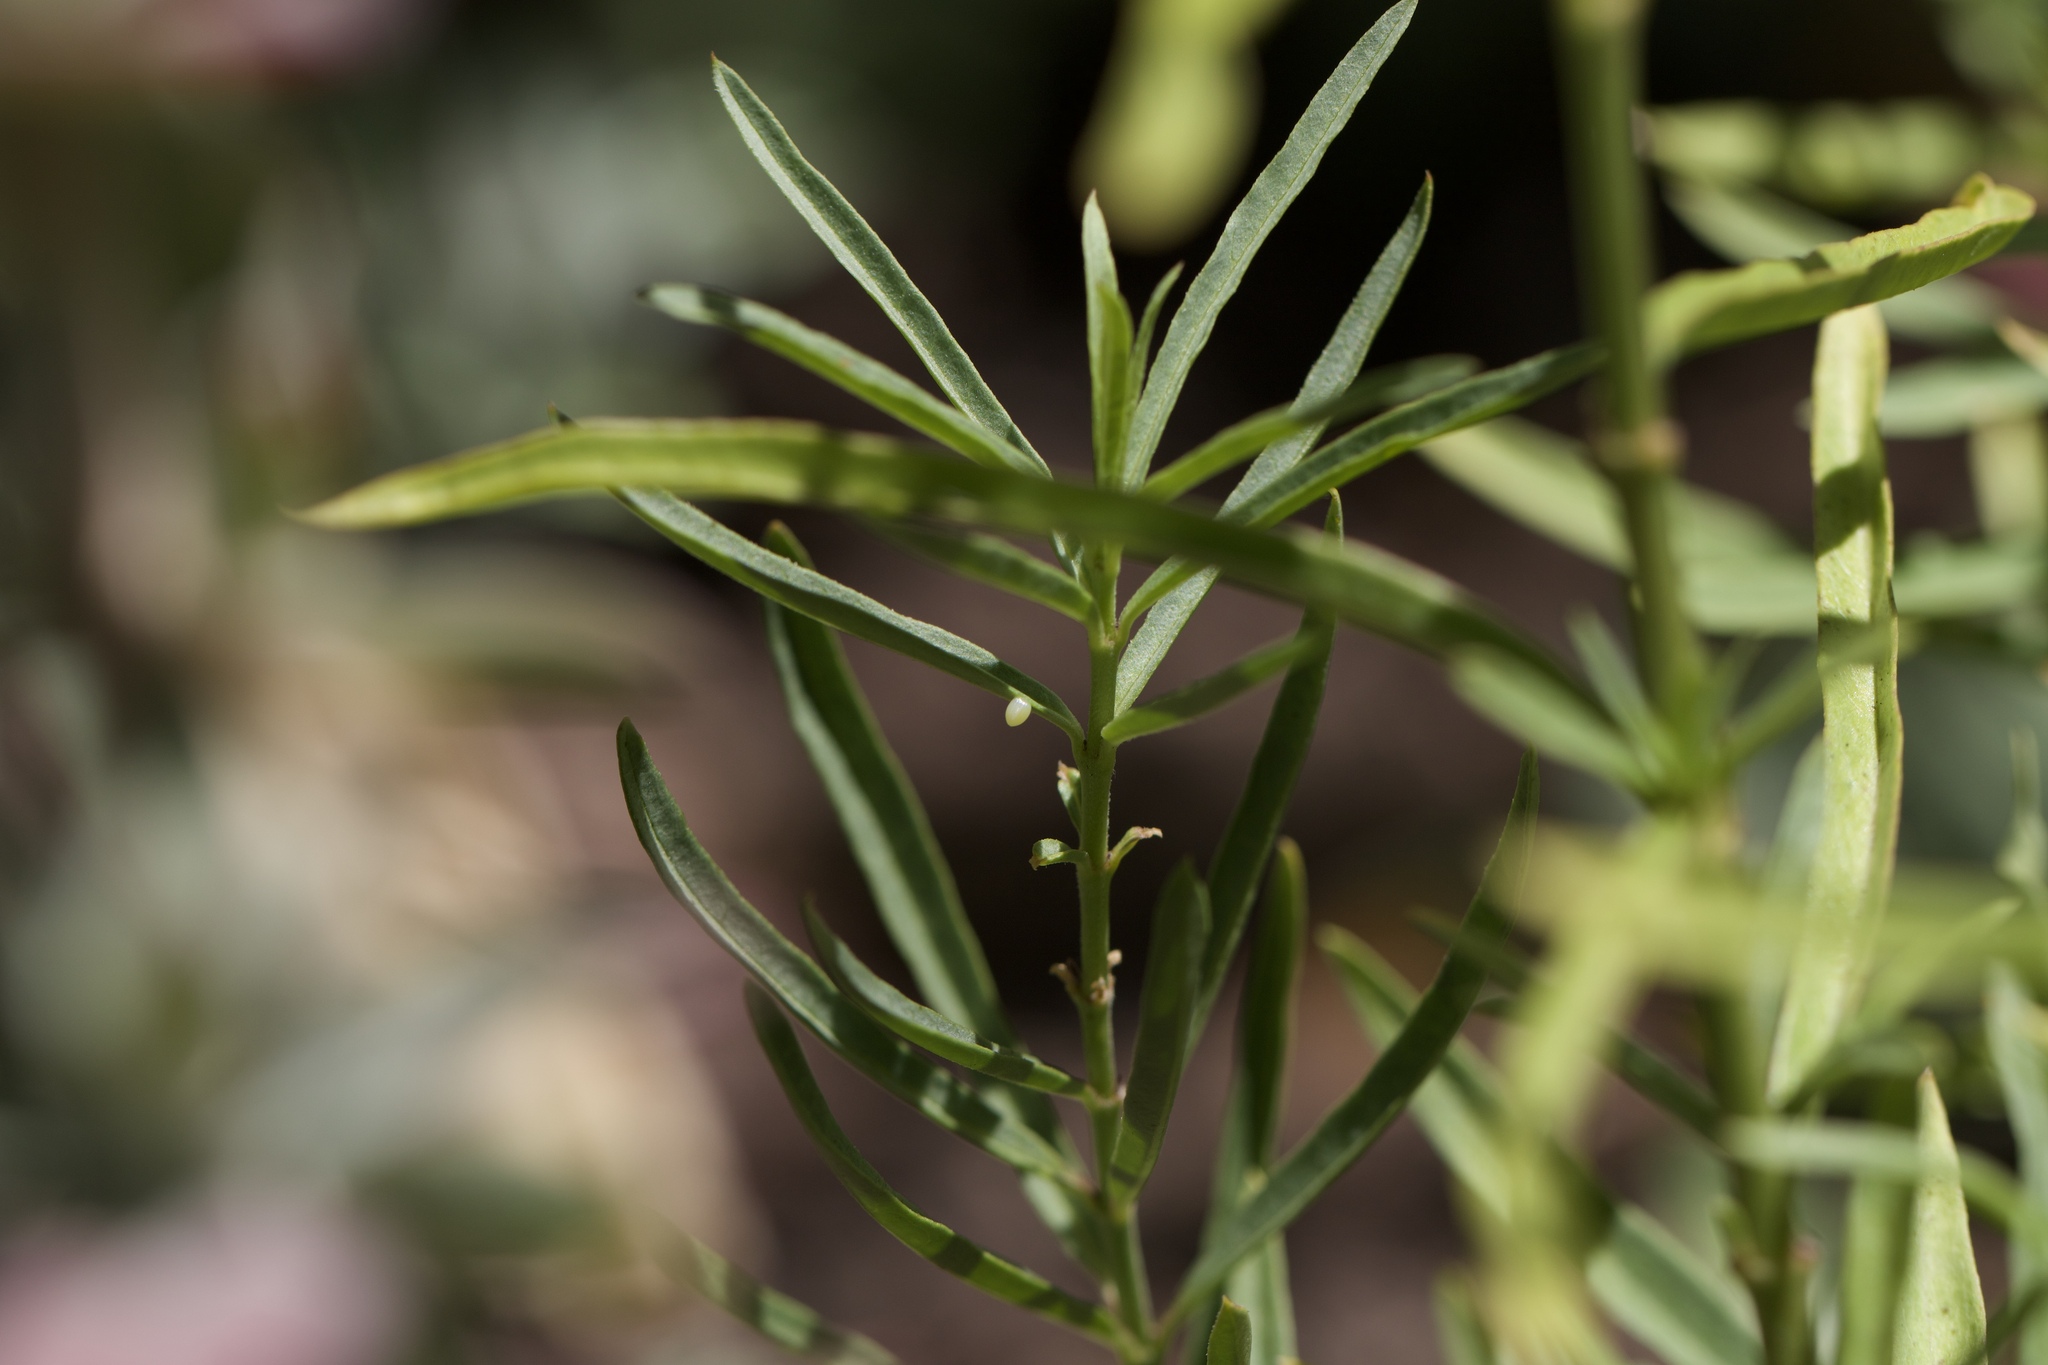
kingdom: Animalia
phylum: Arthropoda
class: Insecta
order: Lepidoptera
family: Nymphalidae
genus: Danaus
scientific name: Danaus plexippus
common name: Monarch
